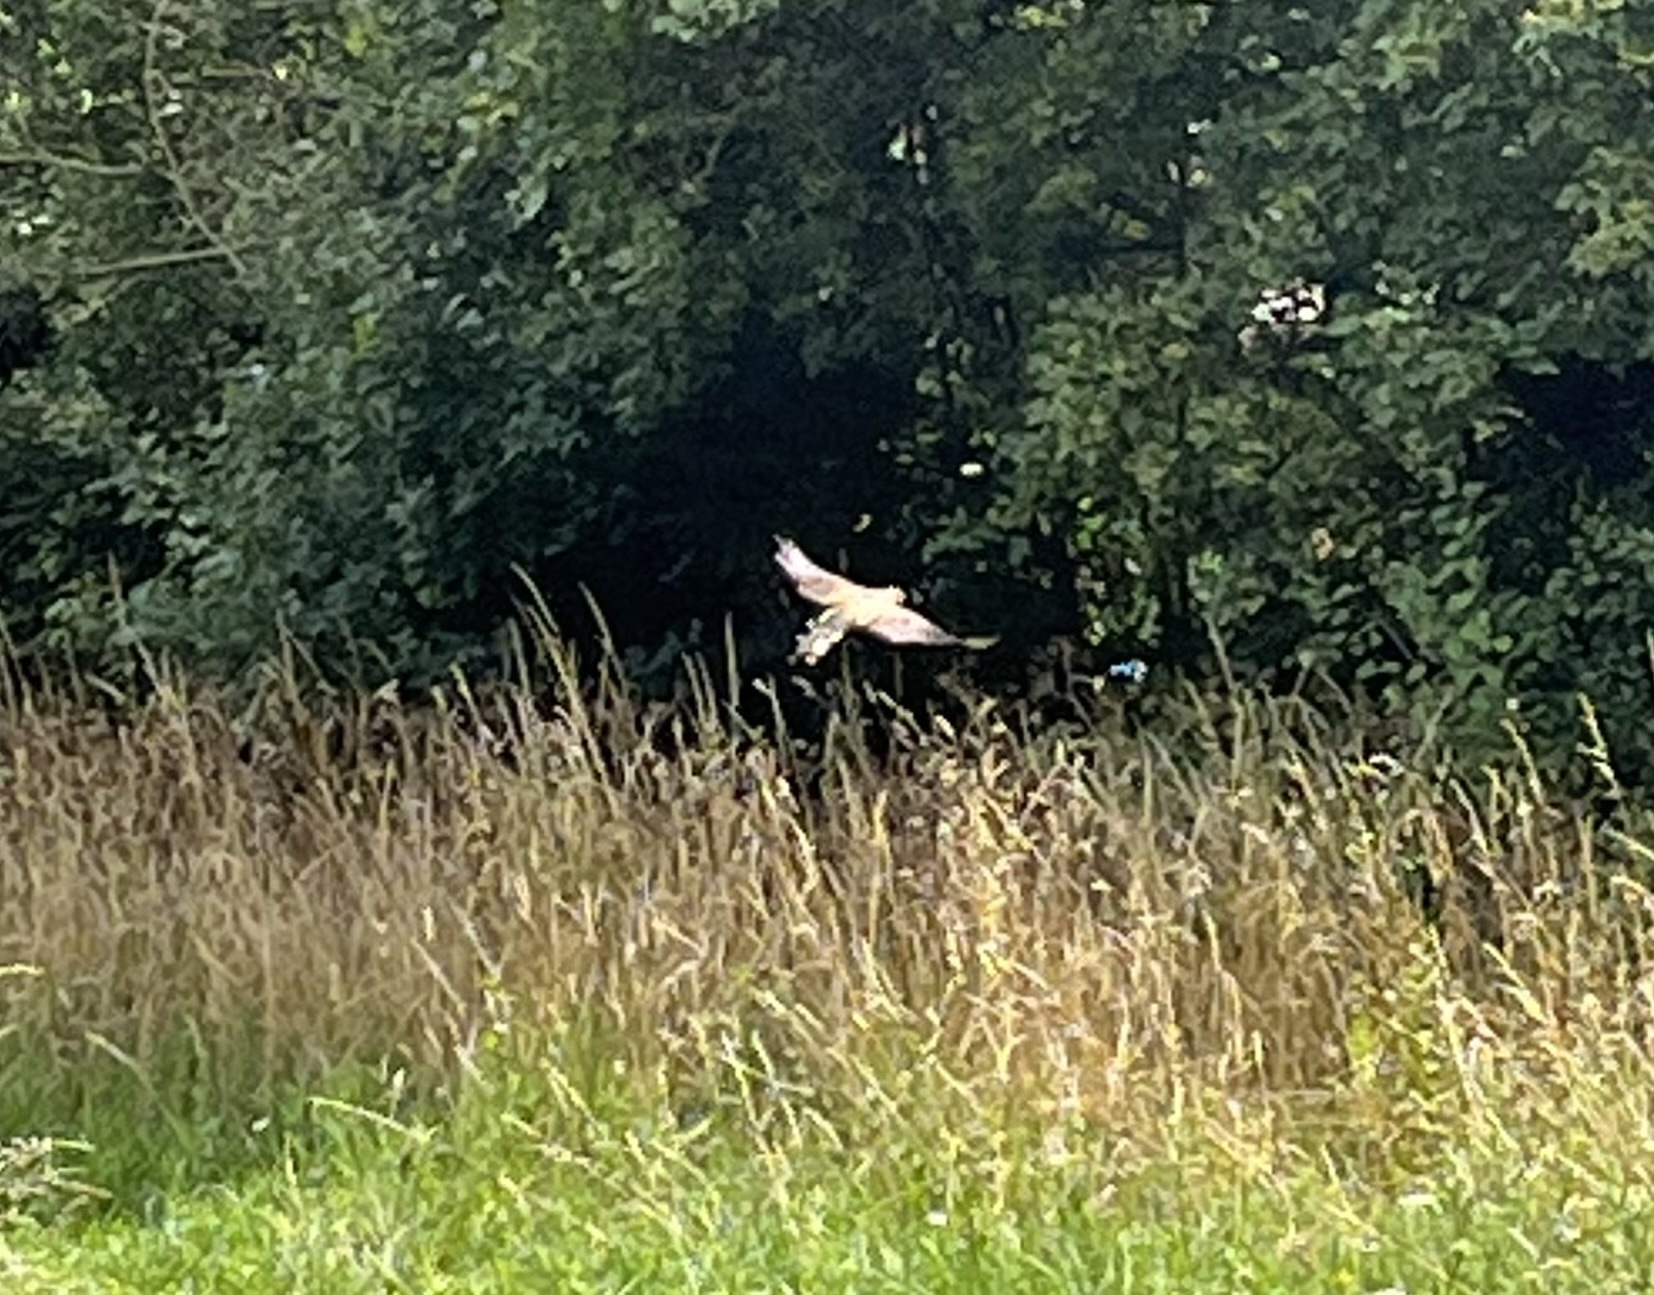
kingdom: Animalia
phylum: Chordata
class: Aves
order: Falconiformes
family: Falconidae
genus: Falco
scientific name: Falco tinnunculus
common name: Common kestrel
